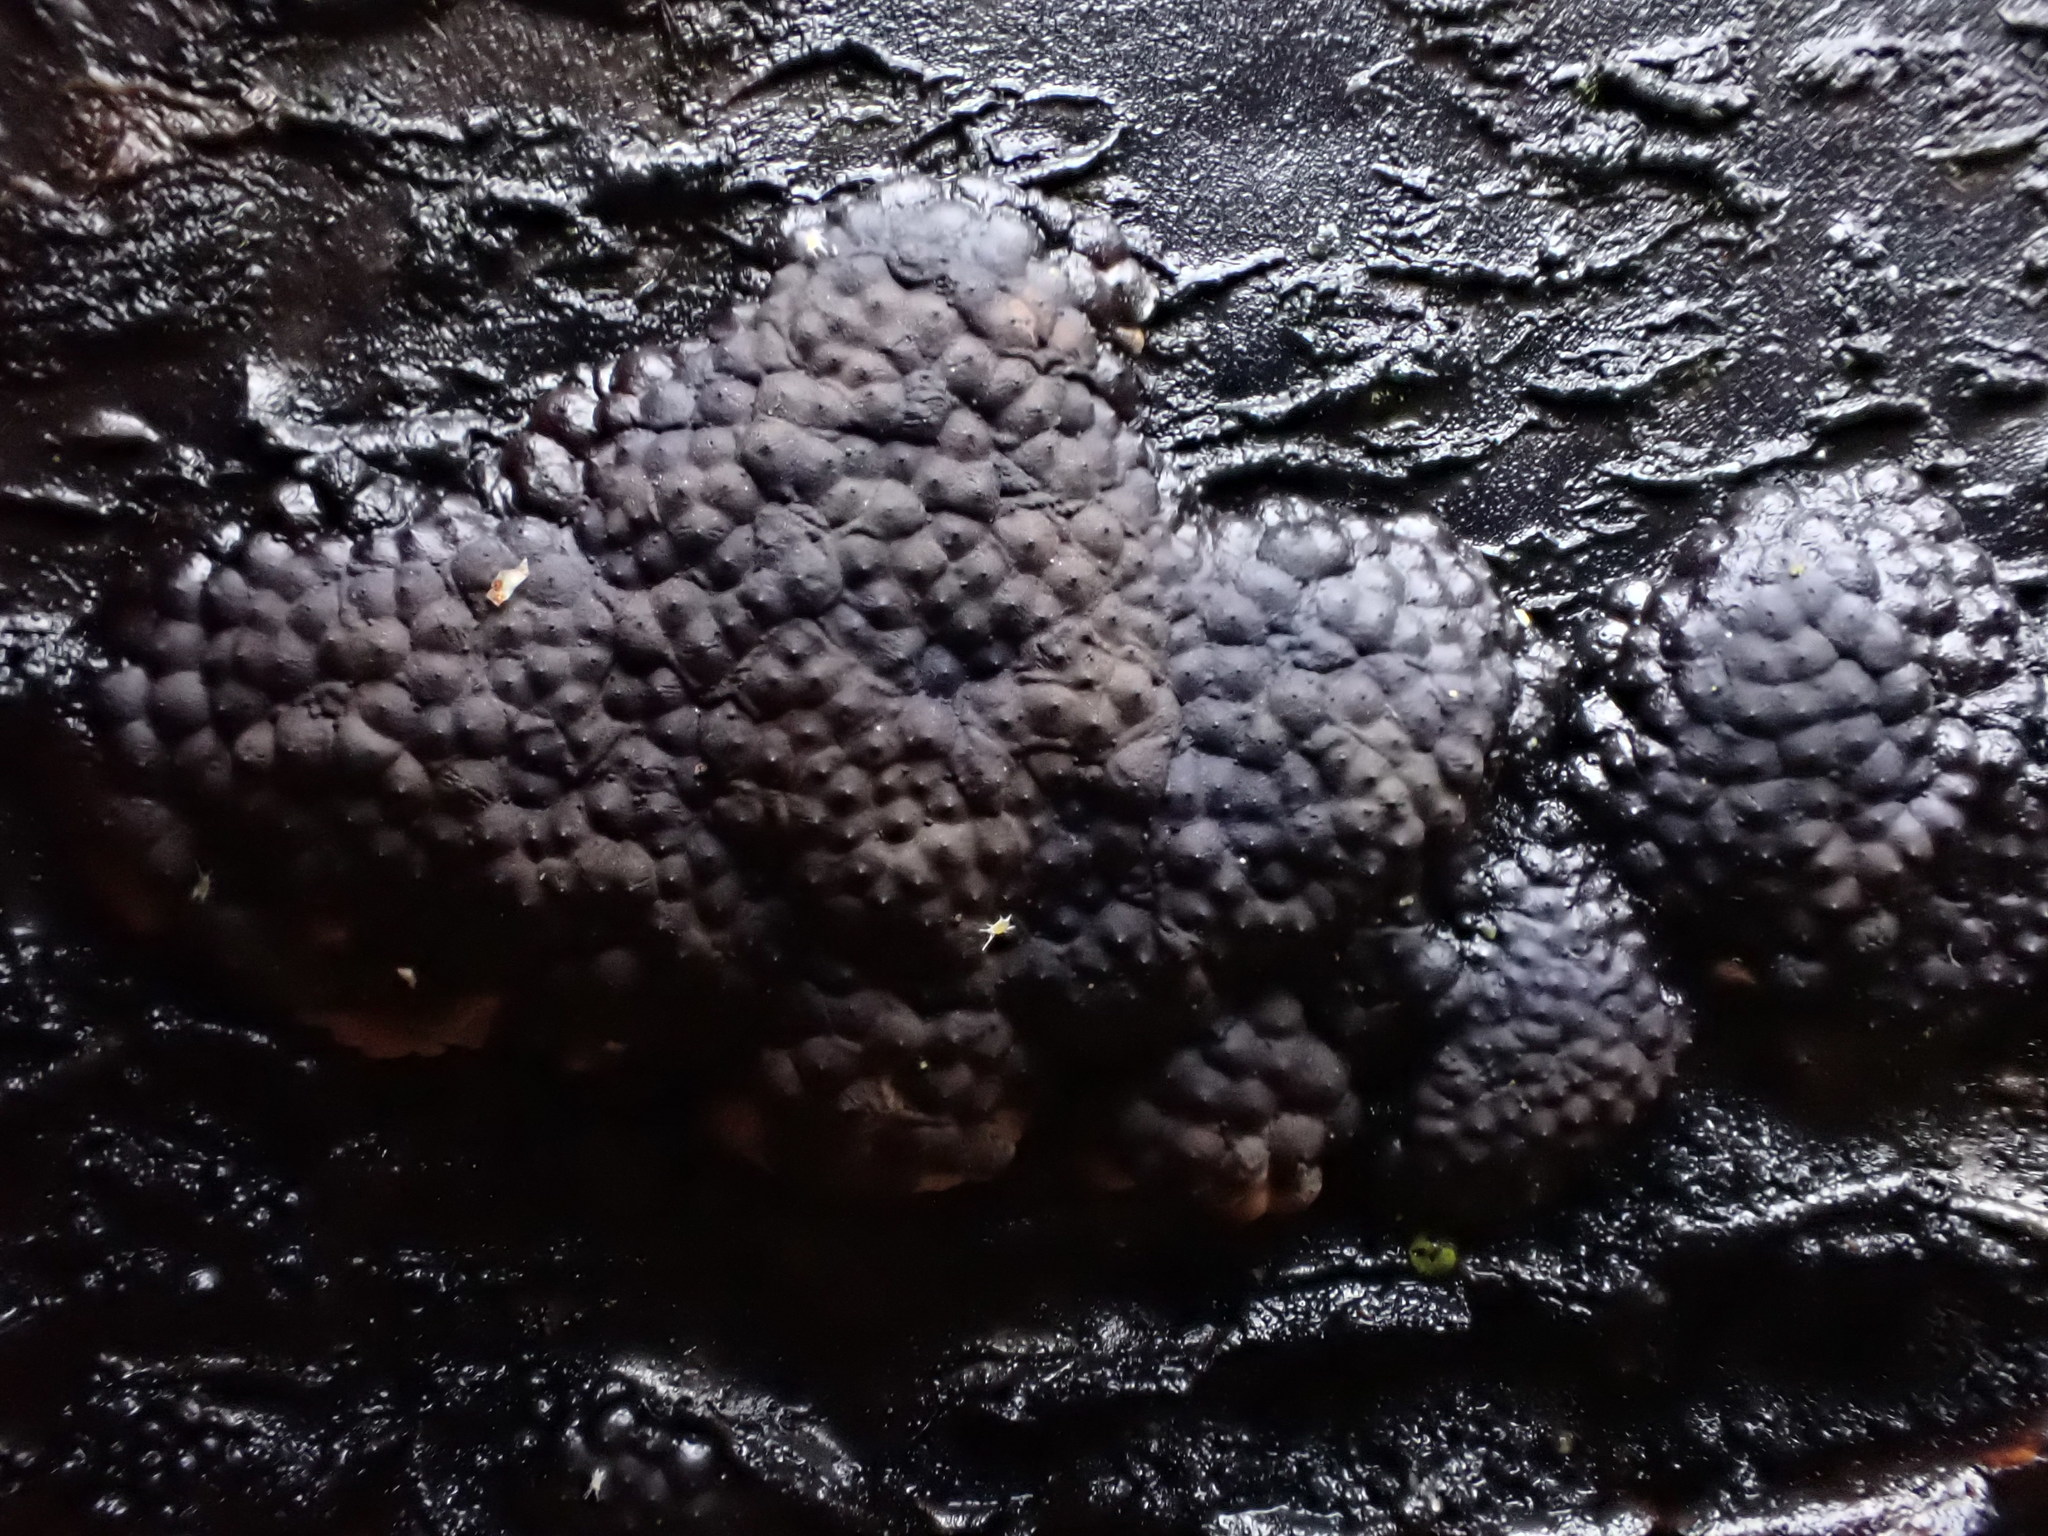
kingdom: Fungi
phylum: Ascomycota
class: Sordariomycetes
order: Xylariales
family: Hypoxylaceae
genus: Jackrogersella
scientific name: Jackrogersella multiformis
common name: Birch woodwart
